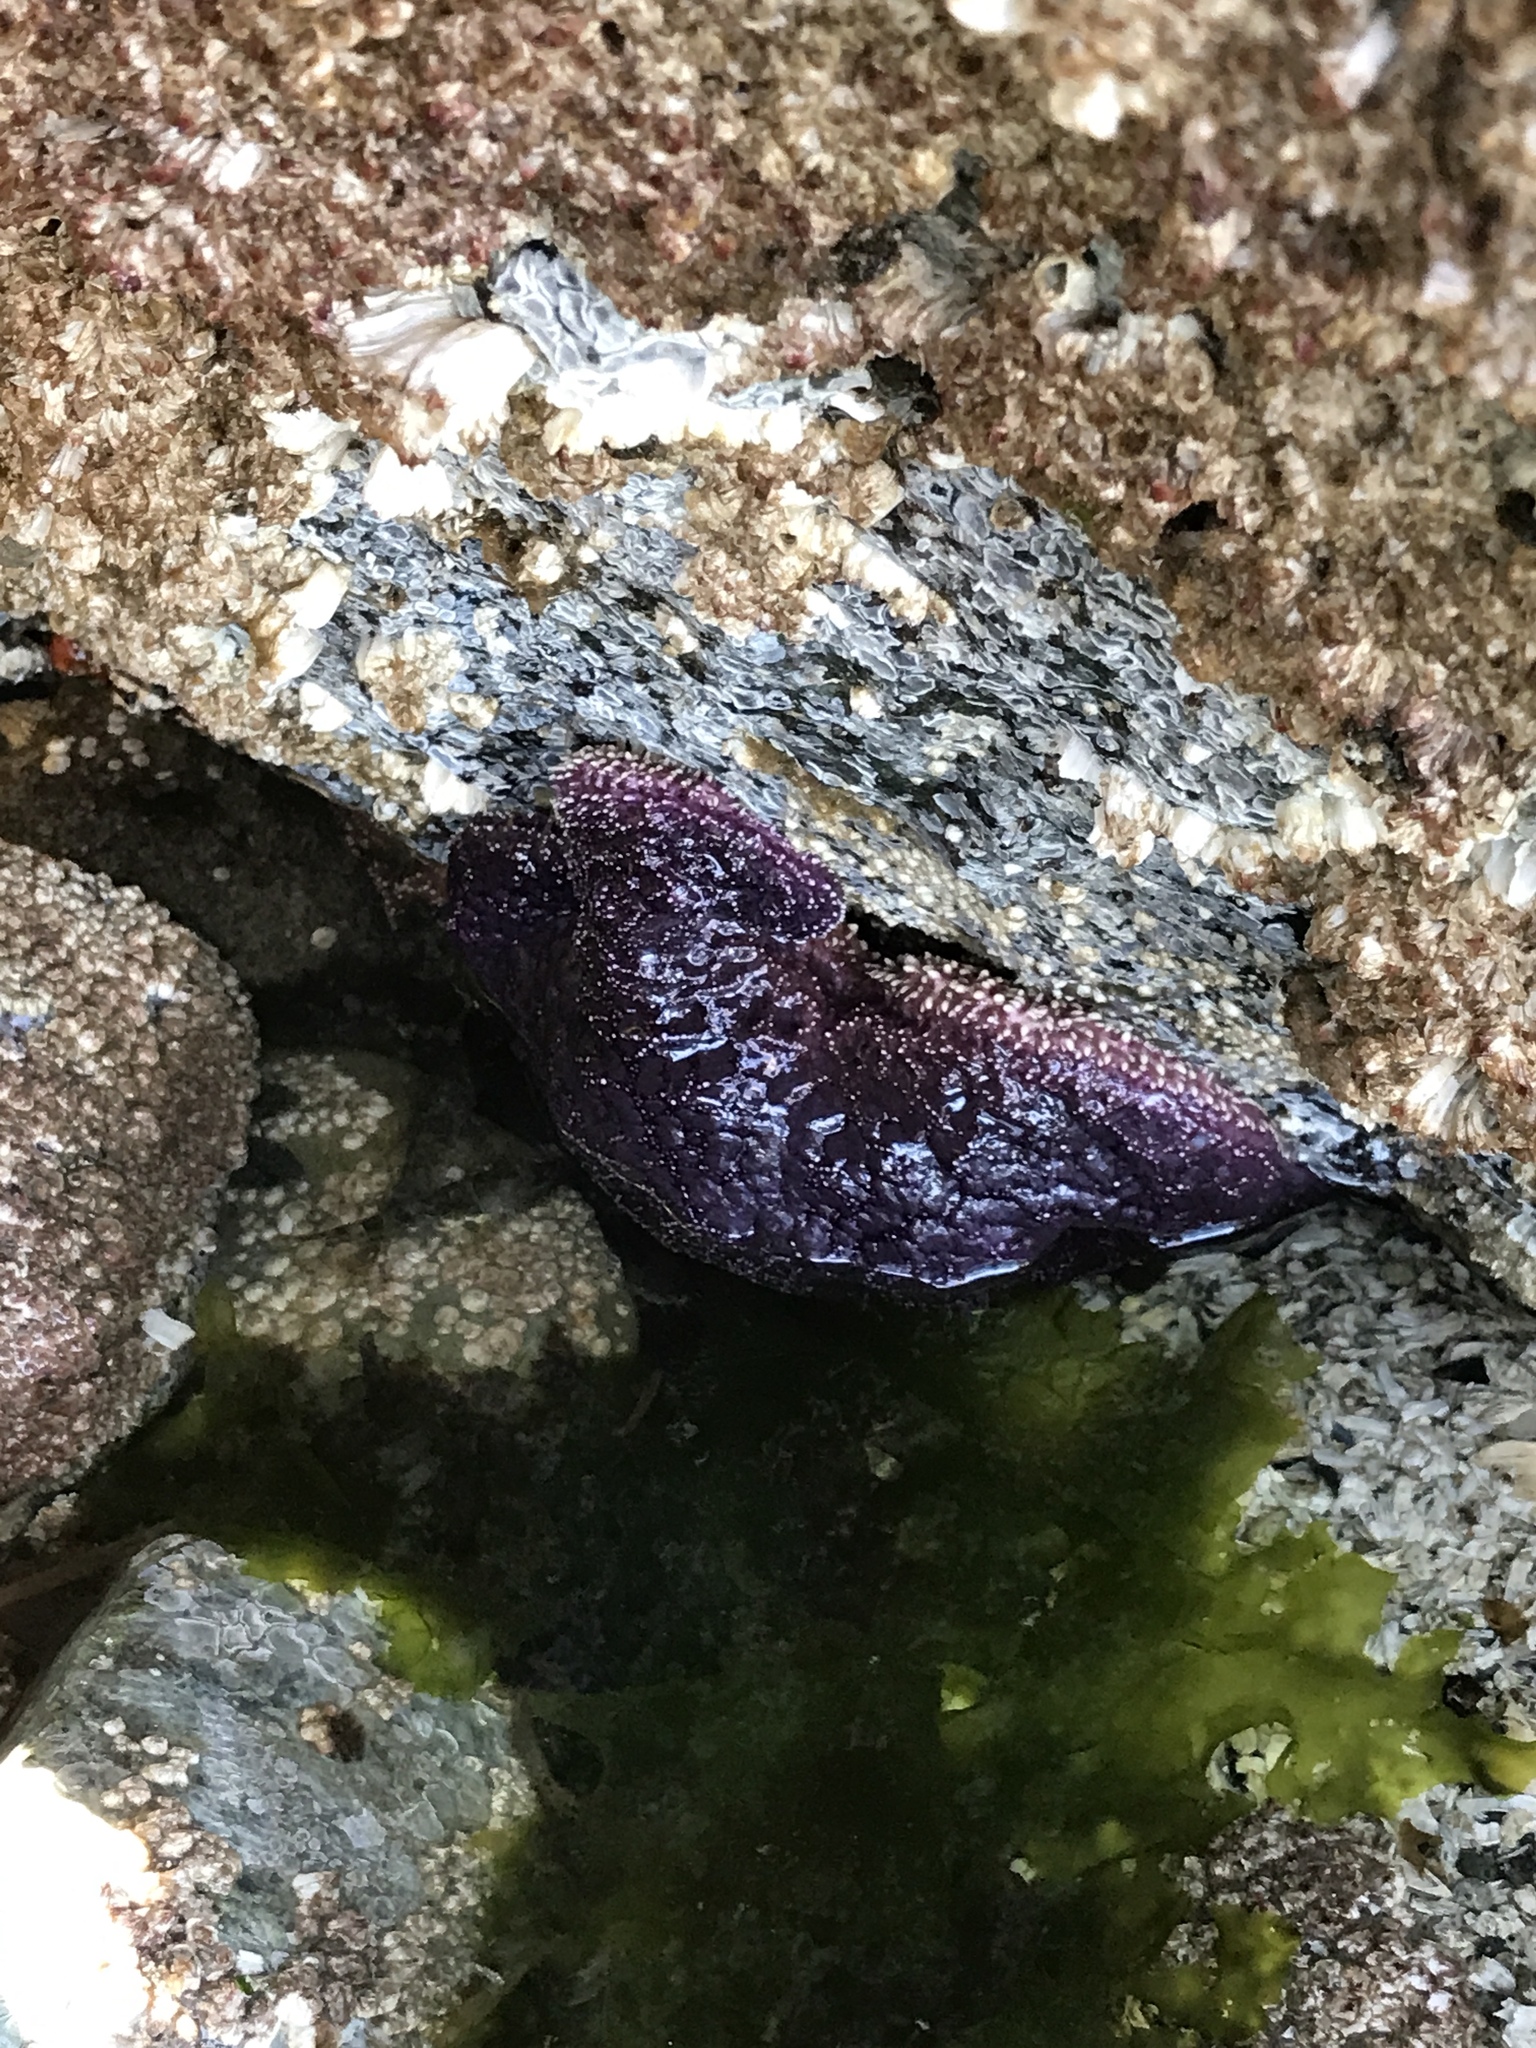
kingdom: Animalia
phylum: Echinodermata
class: Asteroidea
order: Forcipulatida
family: Asteriidae
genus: Pisaster
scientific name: Pisaster ochraceus
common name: Ochre stars
